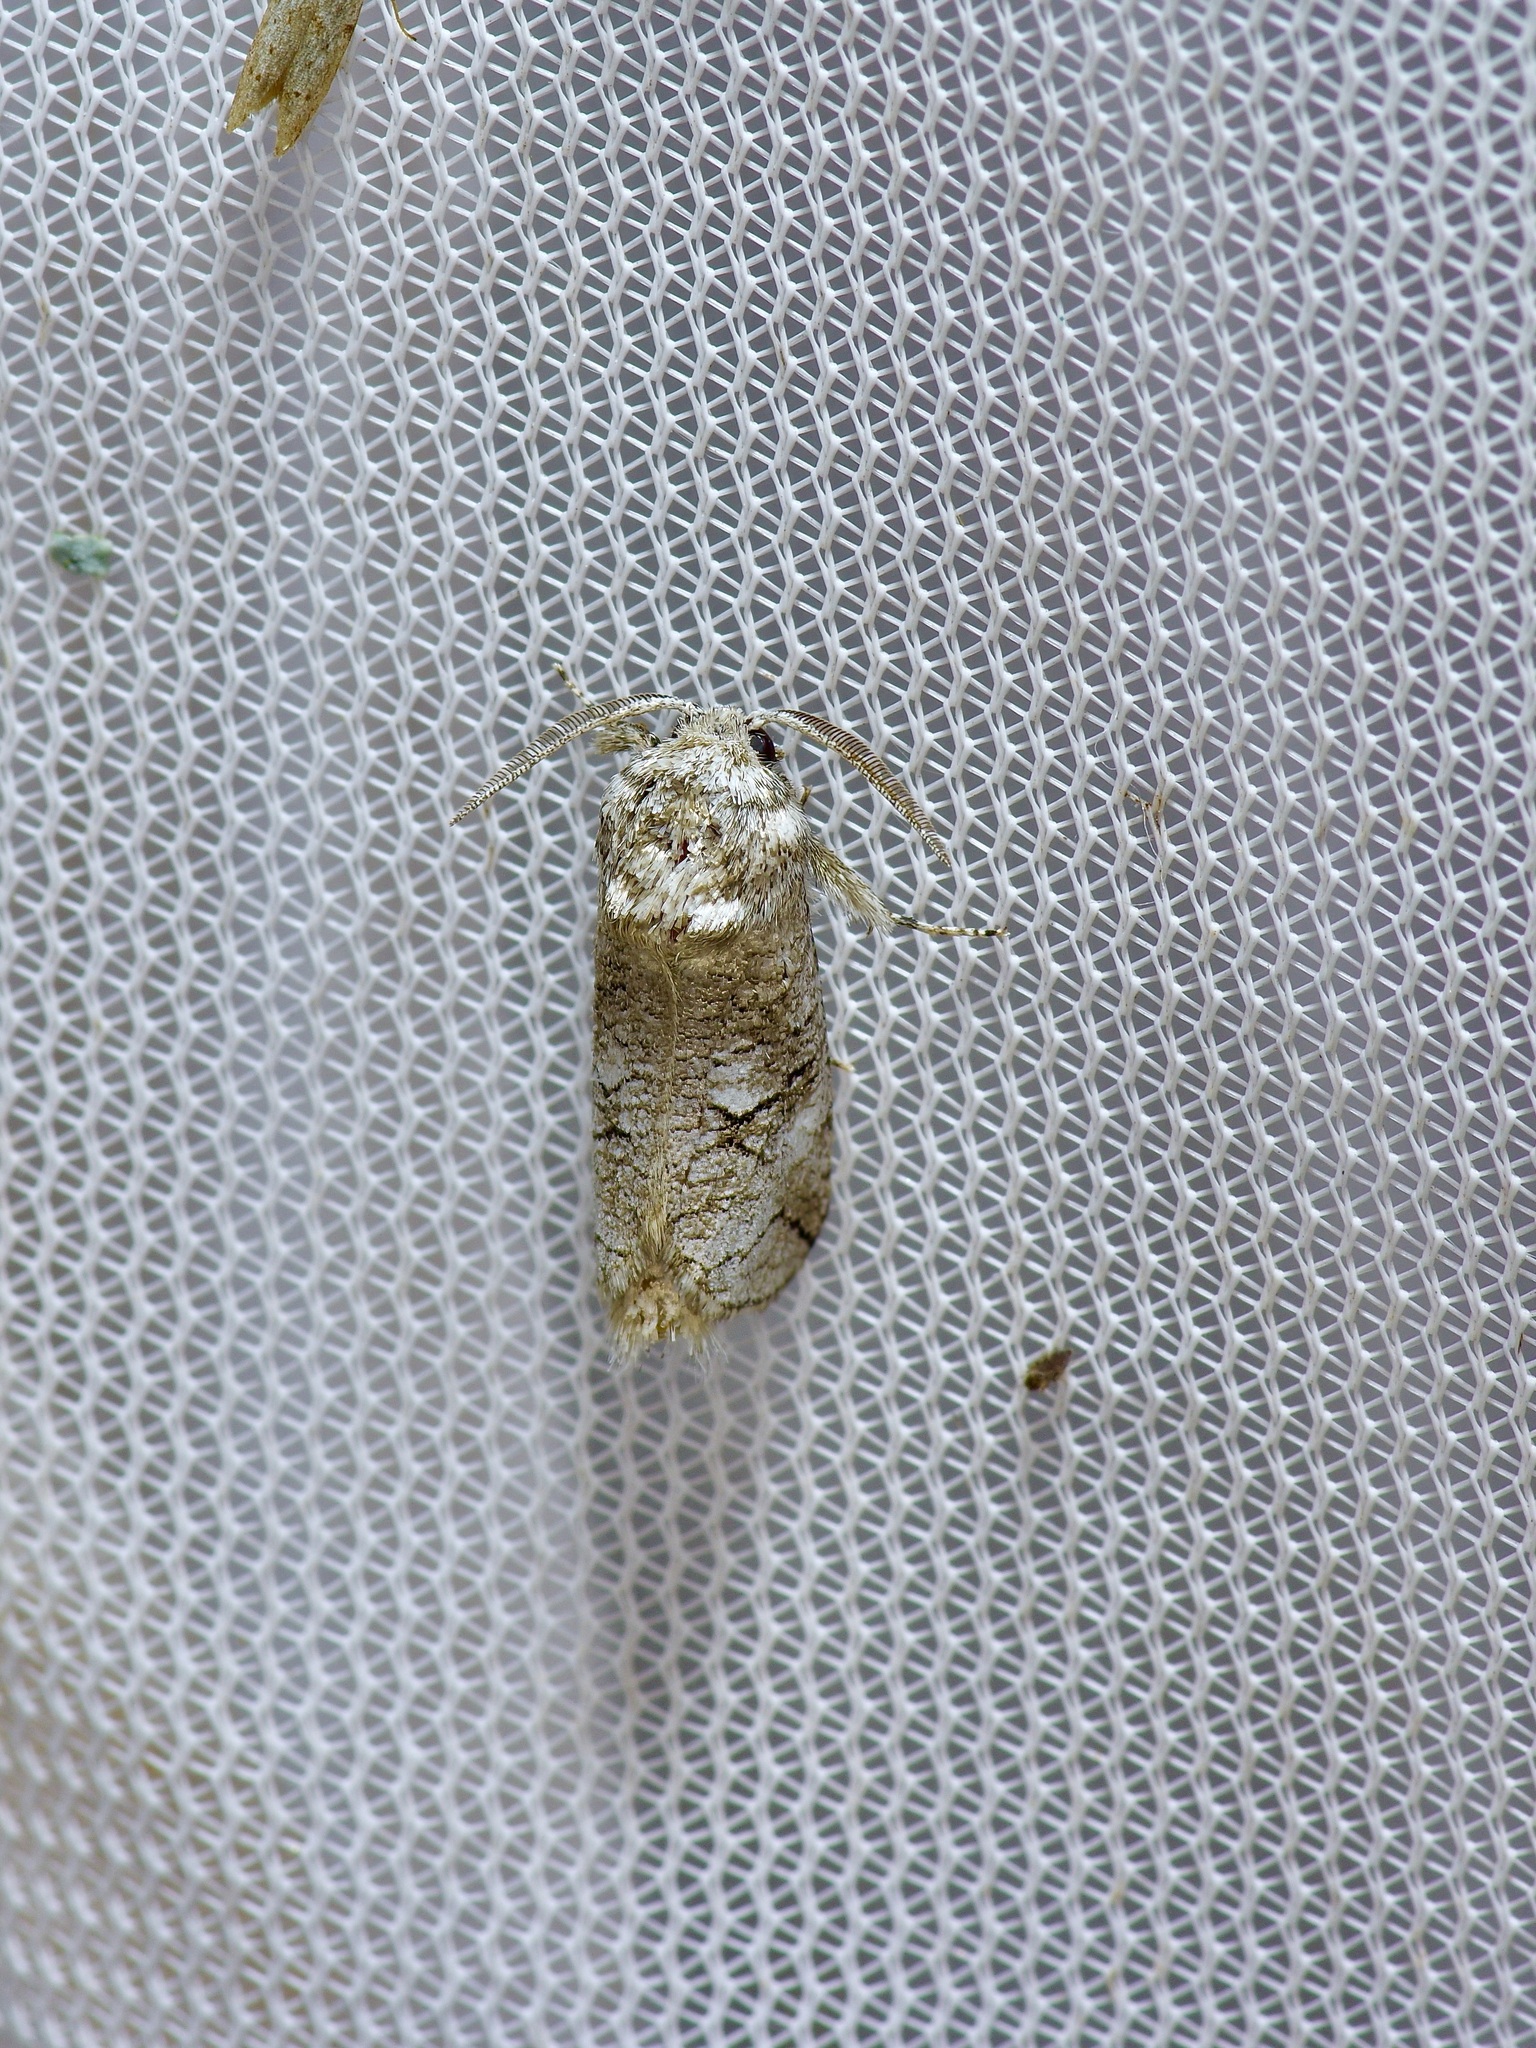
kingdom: Animalia
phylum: Arthropoda
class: Insecta
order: Lepidoptera
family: Cossidae
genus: Fania
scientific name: Fania nanus
